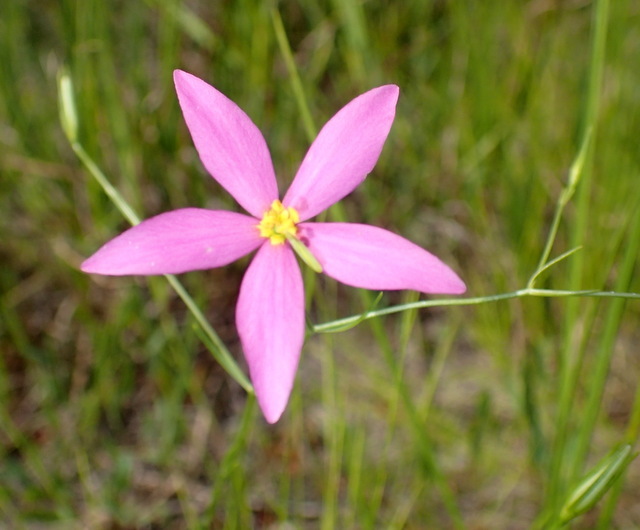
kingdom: Plantae
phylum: Tracheophyta
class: Magnoliopsida
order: Gentianales
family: Gentianaceae
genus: Sabatia
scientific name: Sabatia campanulata
